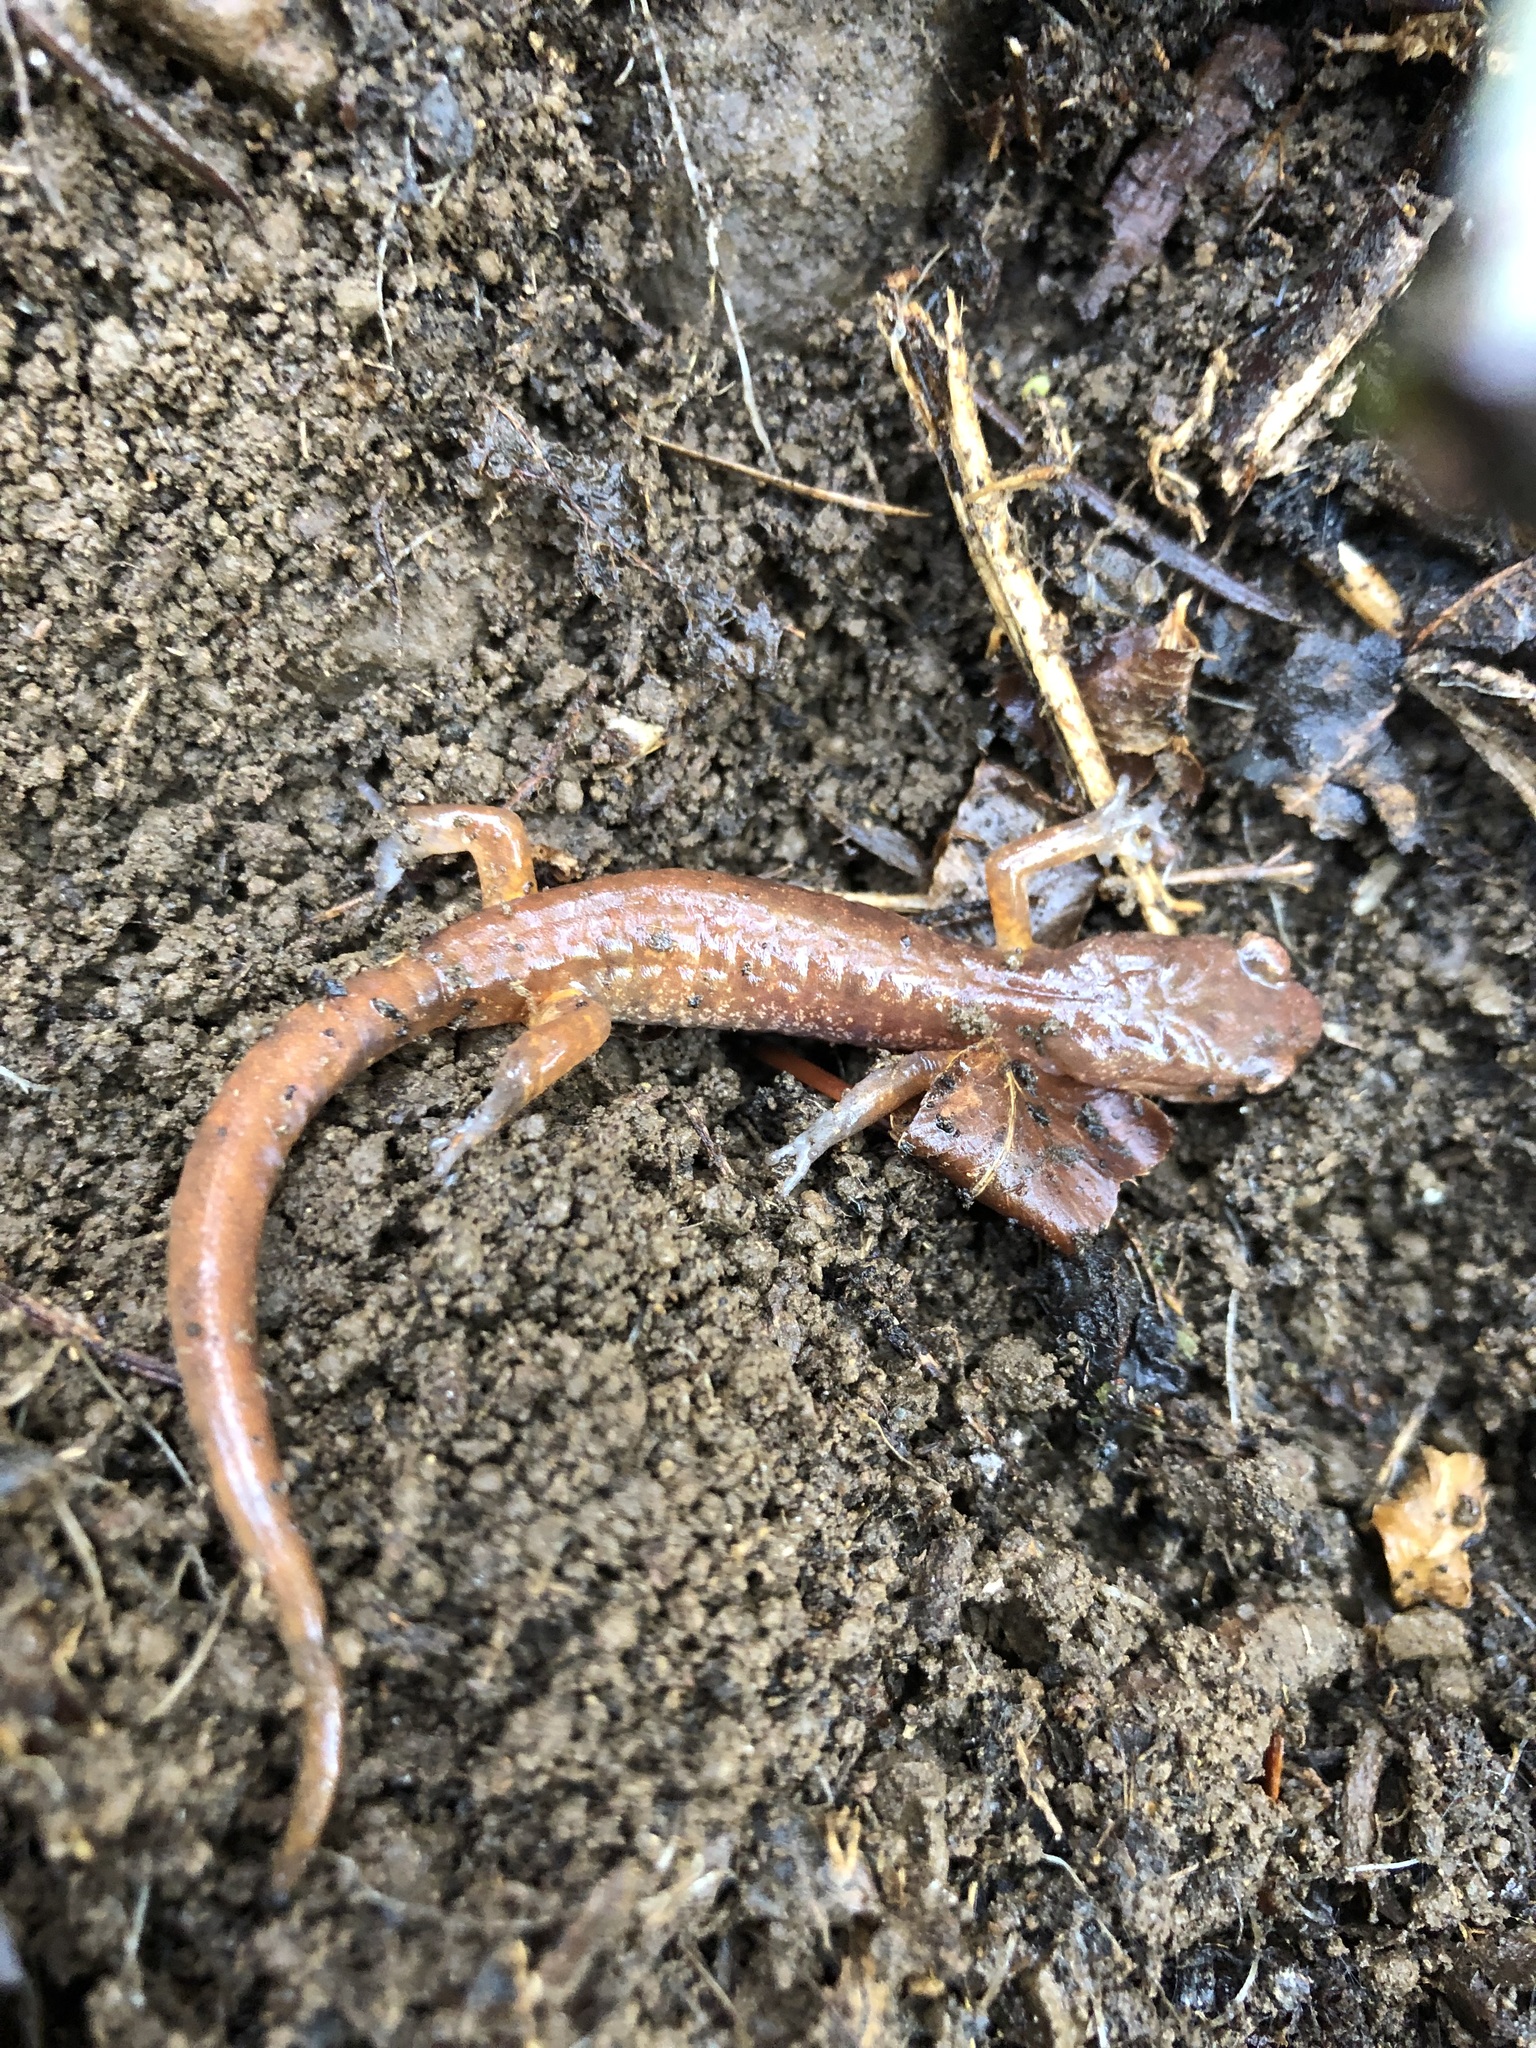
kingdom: Animalia
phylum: Chordata
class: Amphibia
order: Caudata
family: Plethodontidae
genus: Ensatina
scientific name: Ensatina eschscholtzii
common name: Ensatina
